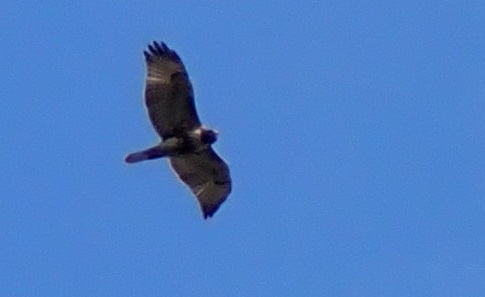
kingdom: Animalia
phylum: Chordata
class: Aves
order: Accipitriformes
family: Accipitridae
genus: Buteo
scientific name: Buteo jamaicensis
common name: Red-tailed hawk
